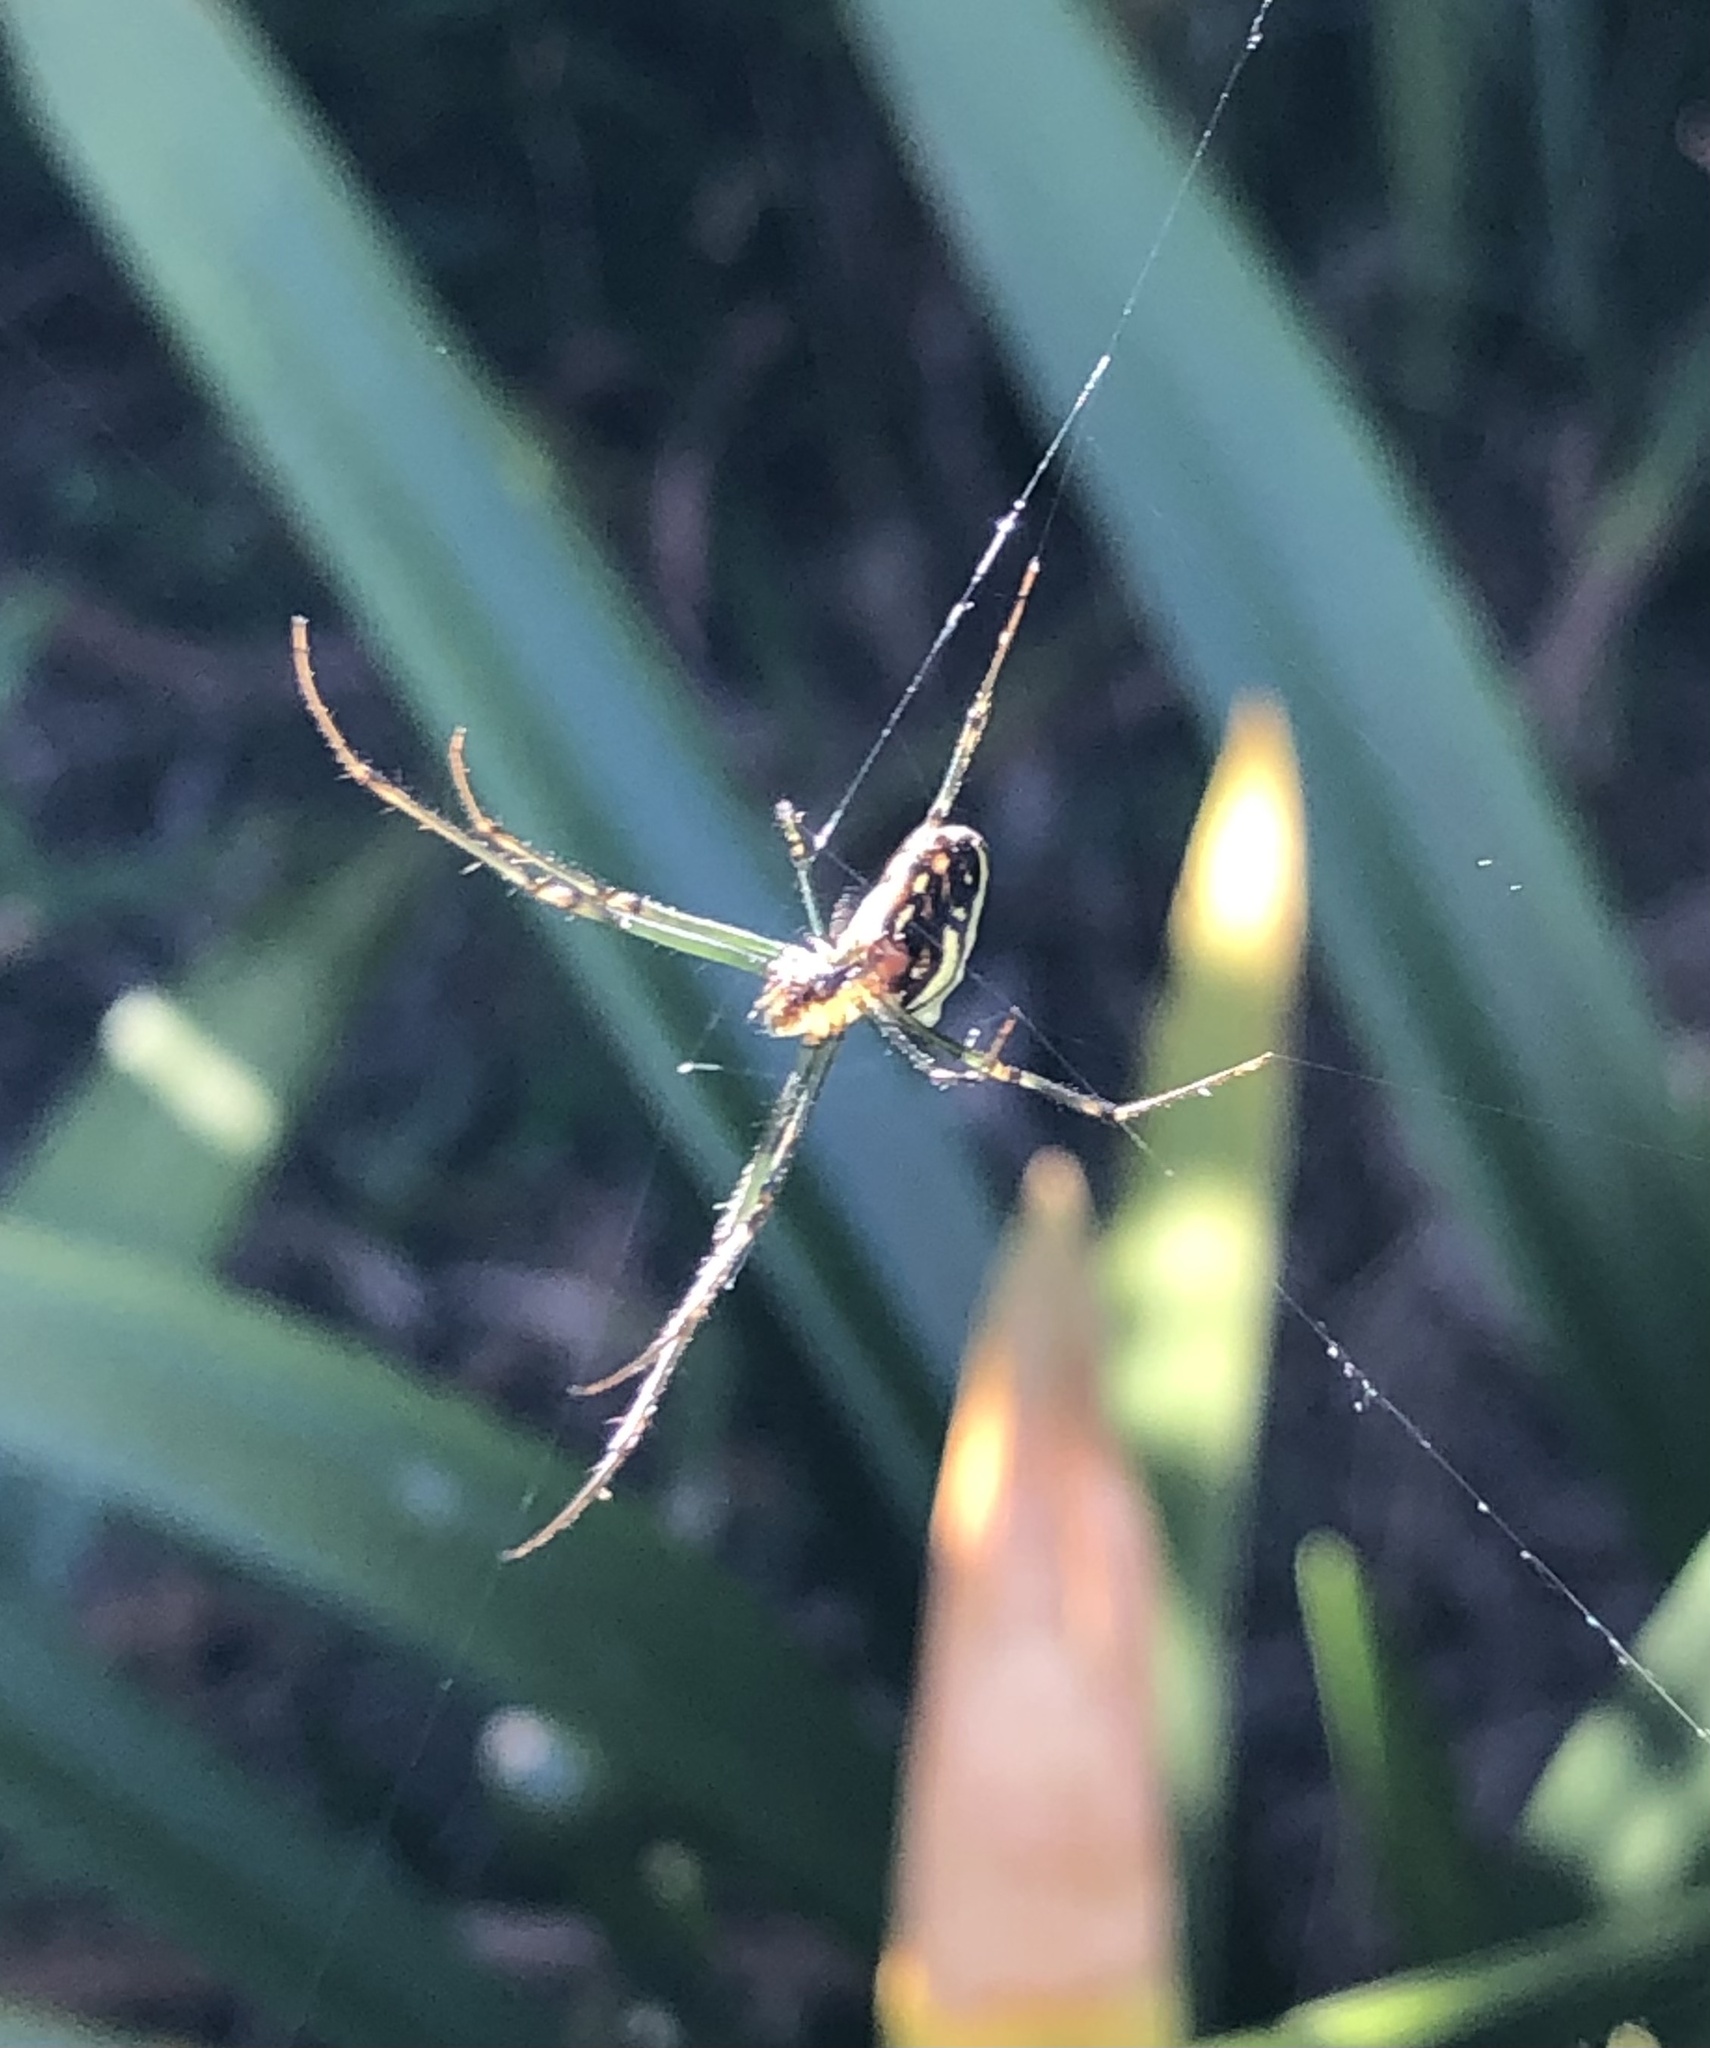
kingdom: Animalia
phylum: Arthropoda
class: Arachnida
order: Araneae
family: Tetragnathidae
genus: Leucauge
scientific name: Leucauge dromedaria
